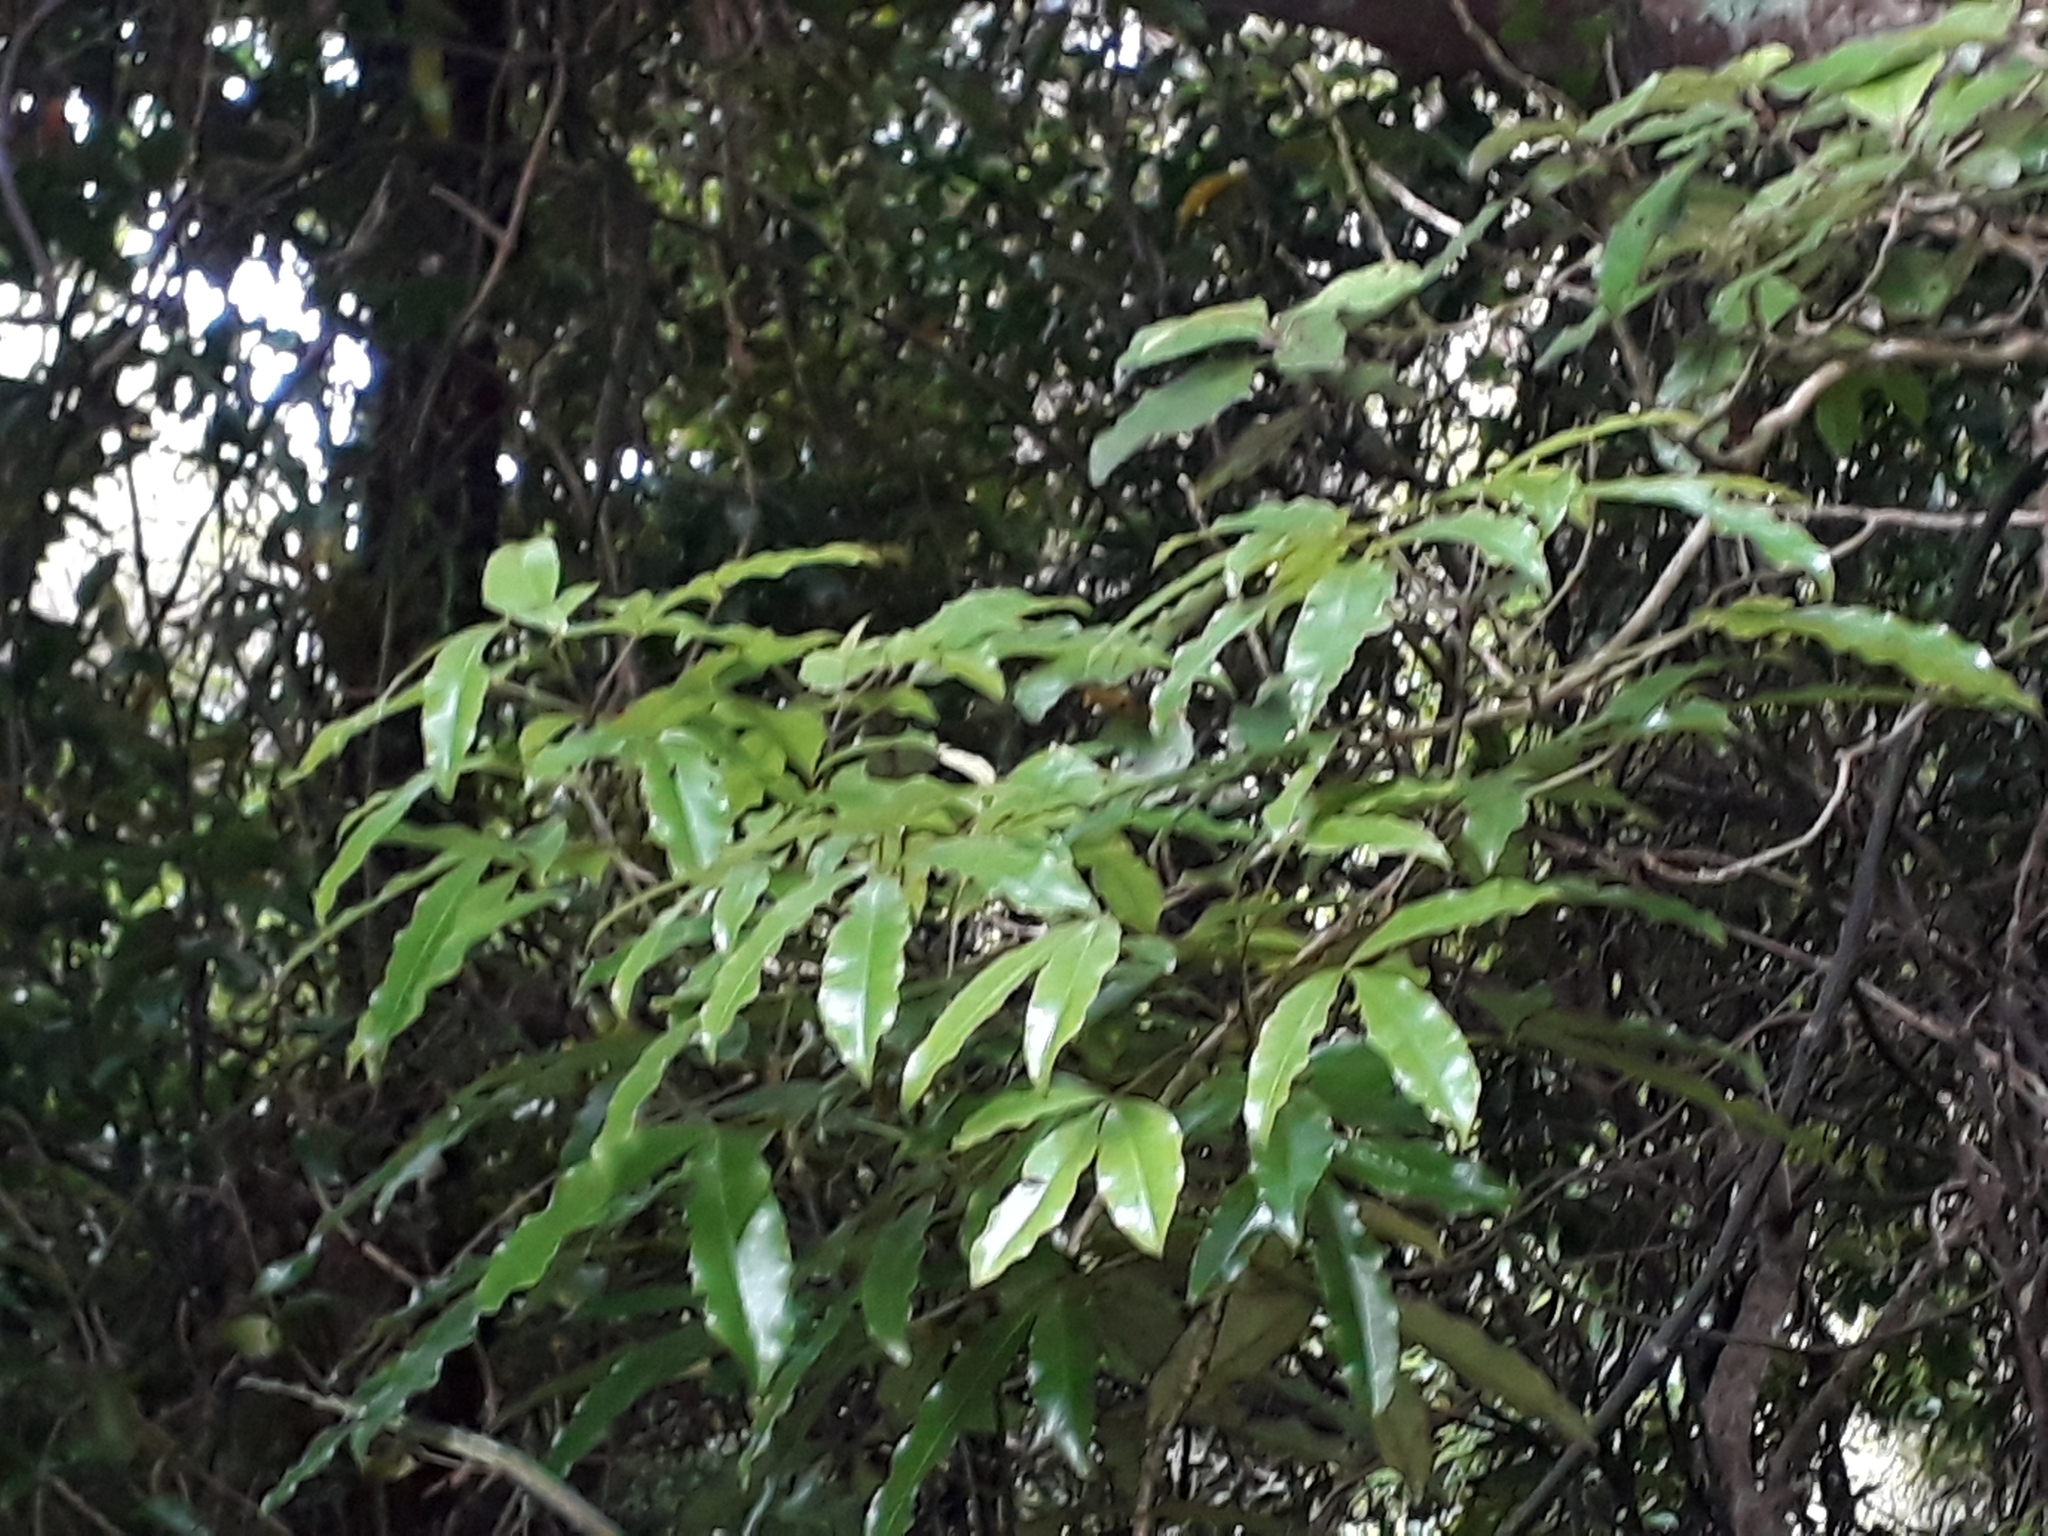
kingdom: Plantae
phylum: Tracheophyta
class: Magnoliopsida
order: Apiales
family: Araliaceae
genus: Raukaua
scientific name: Raukaua edgerleyi
